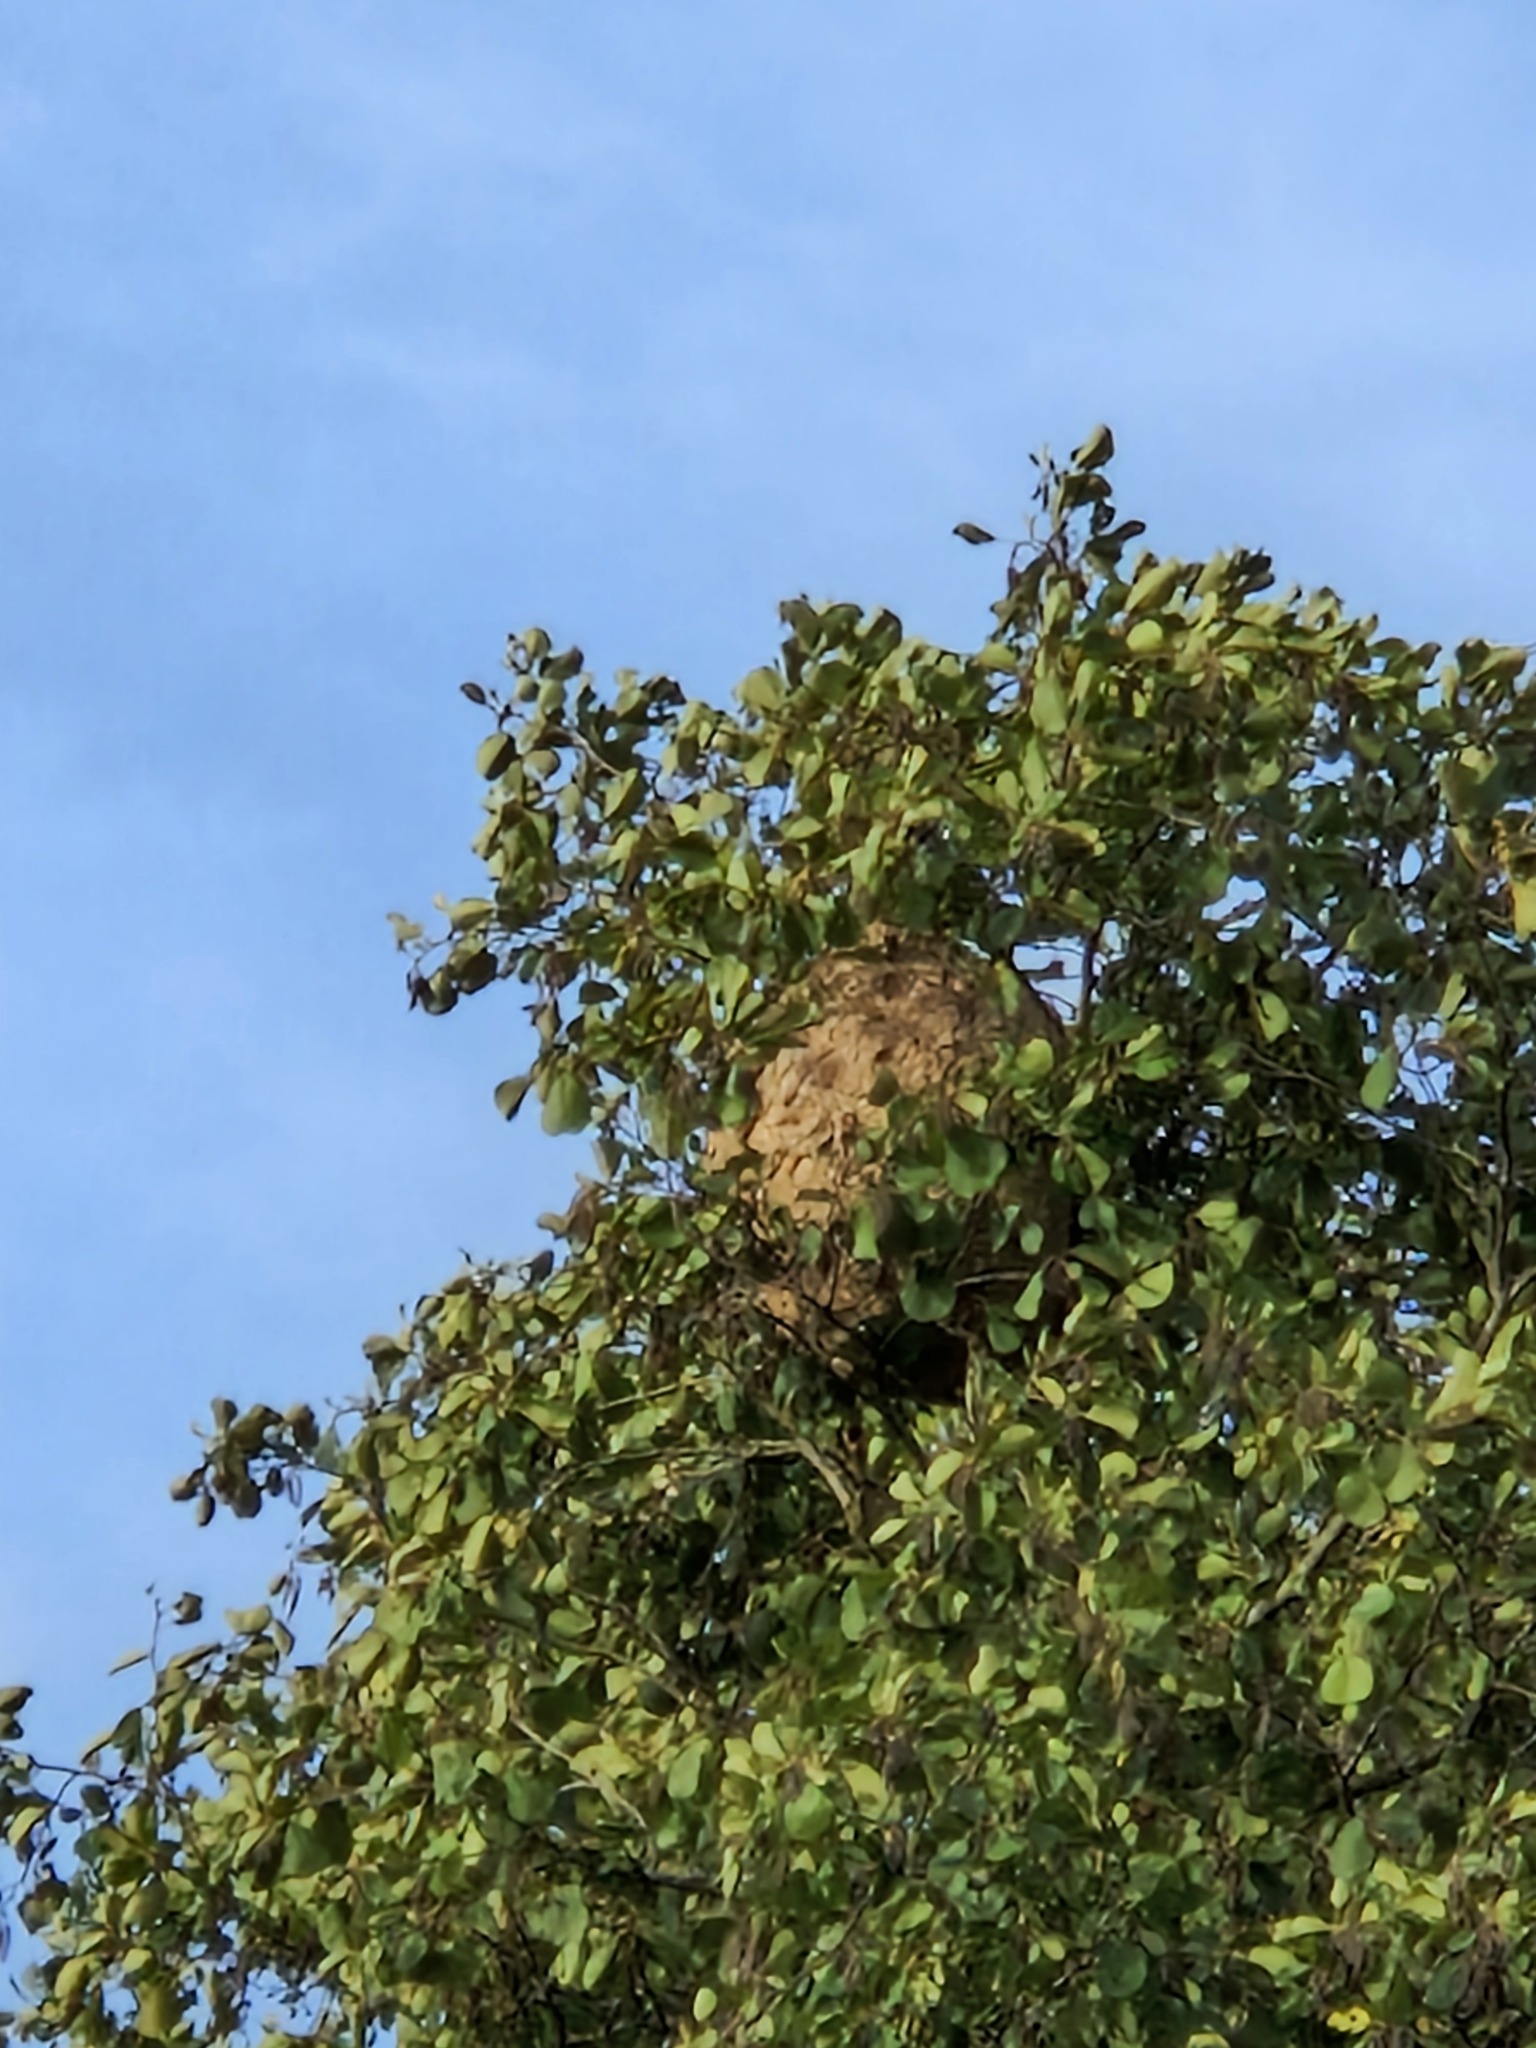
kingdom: Animalia
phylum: Arthropoda
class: Insecta
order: Hymenoptera
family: Vespidae
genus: Vespa
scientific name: Vespa velutina
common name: Asian hornet
